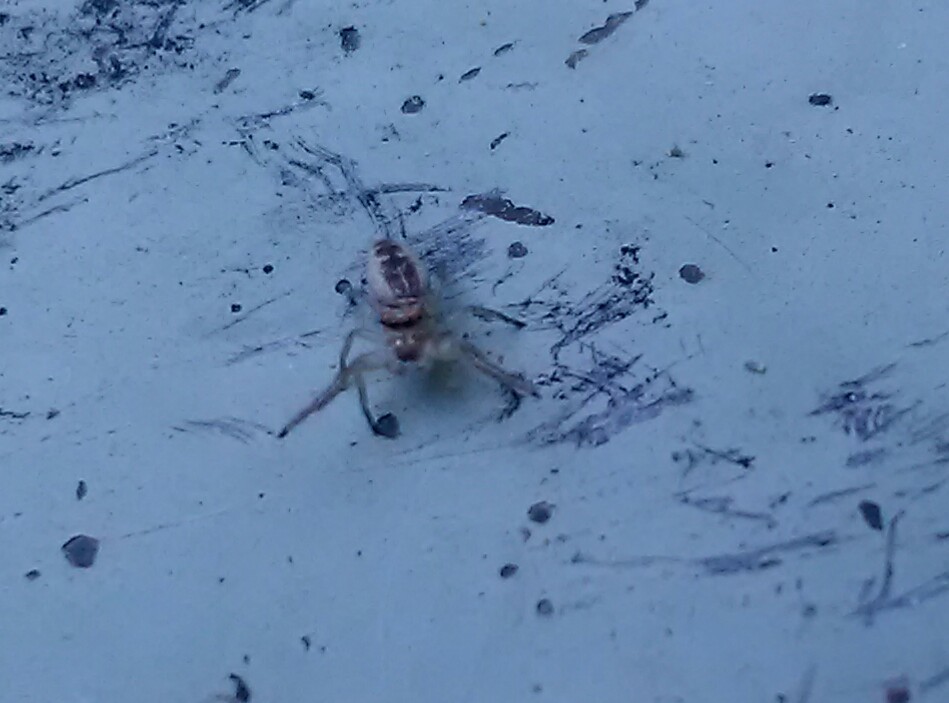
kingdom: Animalia
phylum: Arthropoda
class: Arachnida
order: Araneae
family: Salticidae
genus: Hentzia
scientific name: Hentzia mitrata
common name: White-jawed jumping spider
